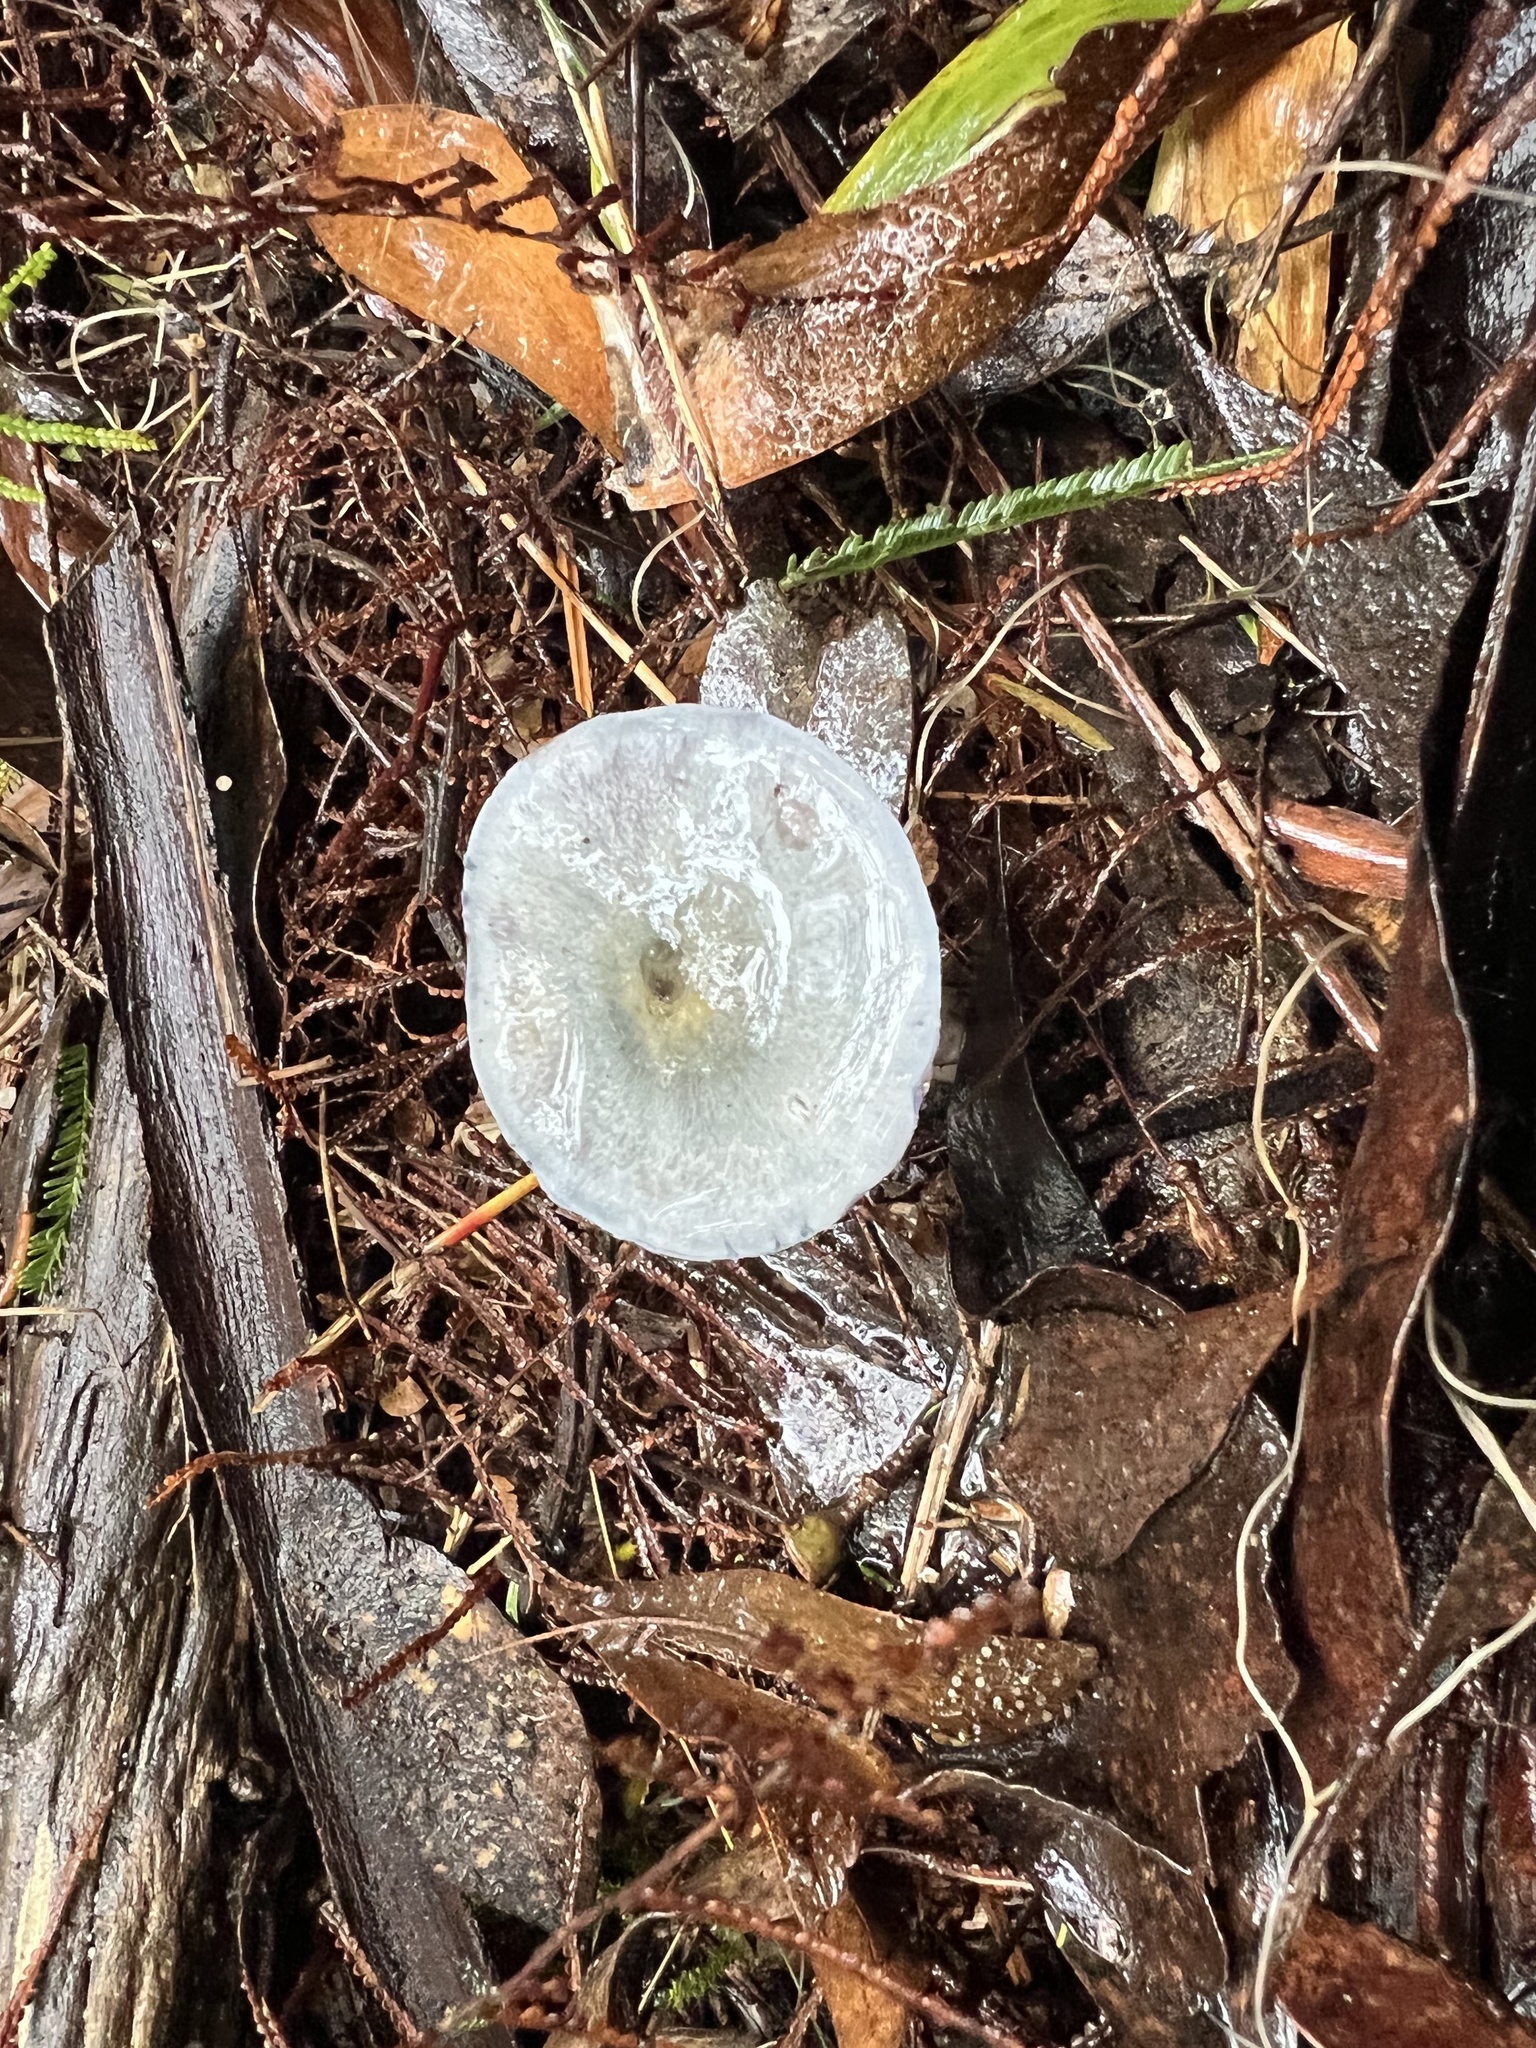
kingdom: Fungi
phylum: Basidiomycota
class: Agaricomycetes
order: Agaricales
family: Cortinariaceae
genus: Cortinarius
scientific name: Cortinarius rotundisporus
